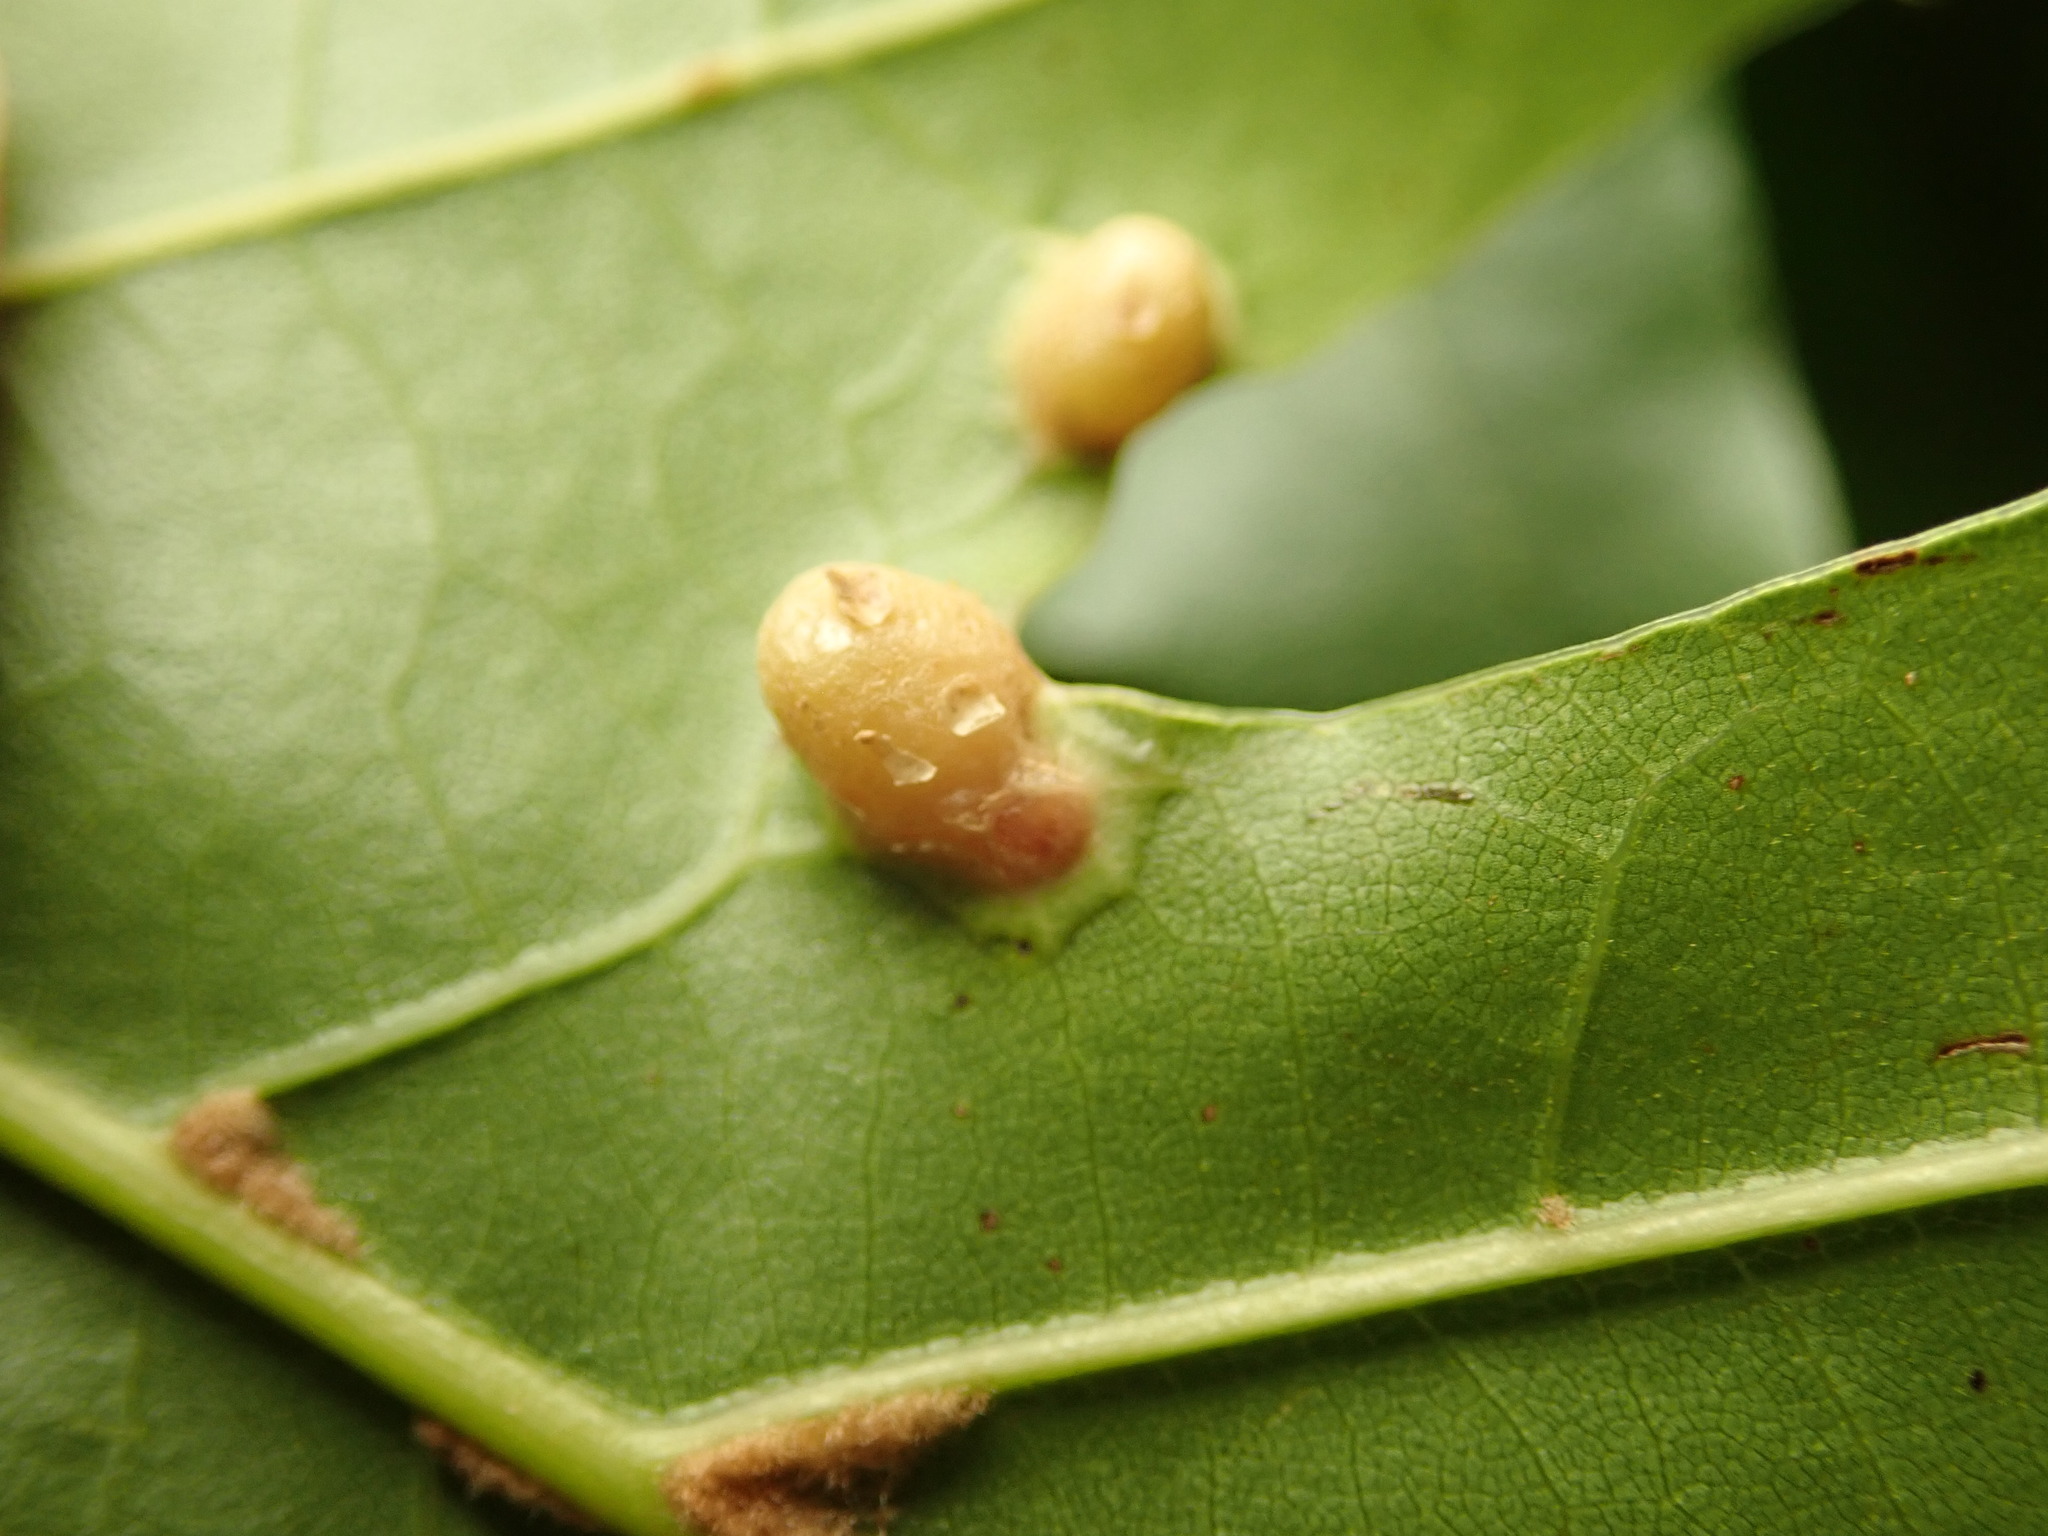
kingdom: Animalia
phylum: Arthropoda
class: Insecta
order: Diptera
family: Cecidomyiidae
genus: Polystepha
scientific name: Polystepha globosa
